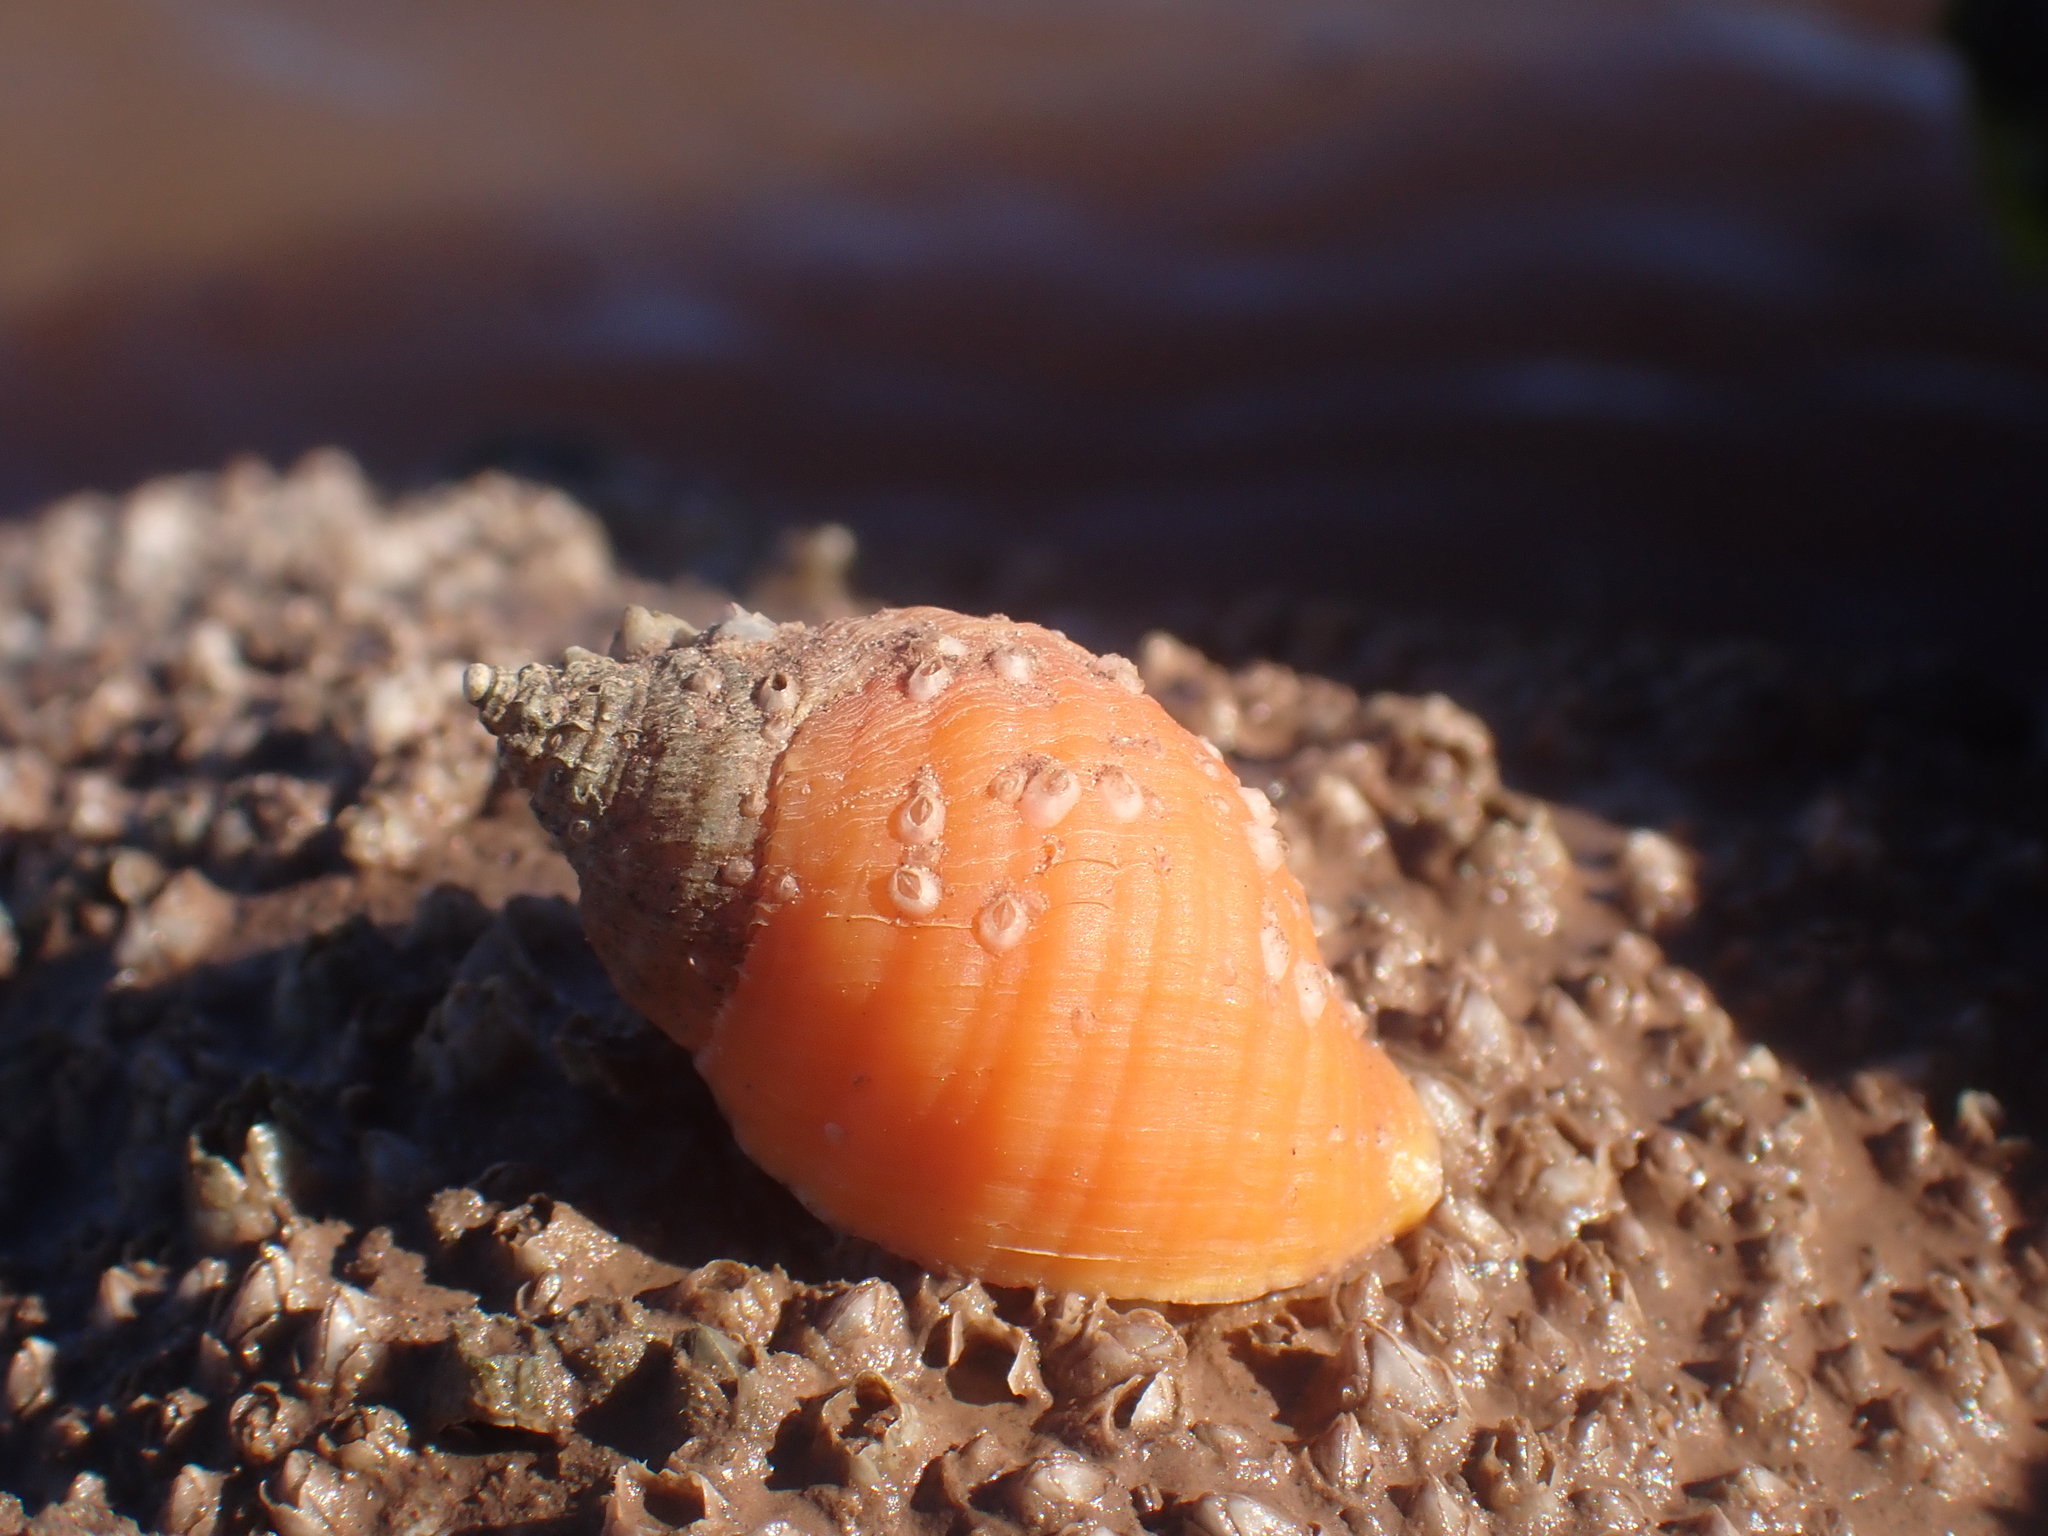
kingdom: Animalia
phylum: Mollusca
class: Gastropoda
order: Neogastropoda
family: Muricidae
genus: Nucella
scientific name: Nucella lapillus
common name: Dog whelk
